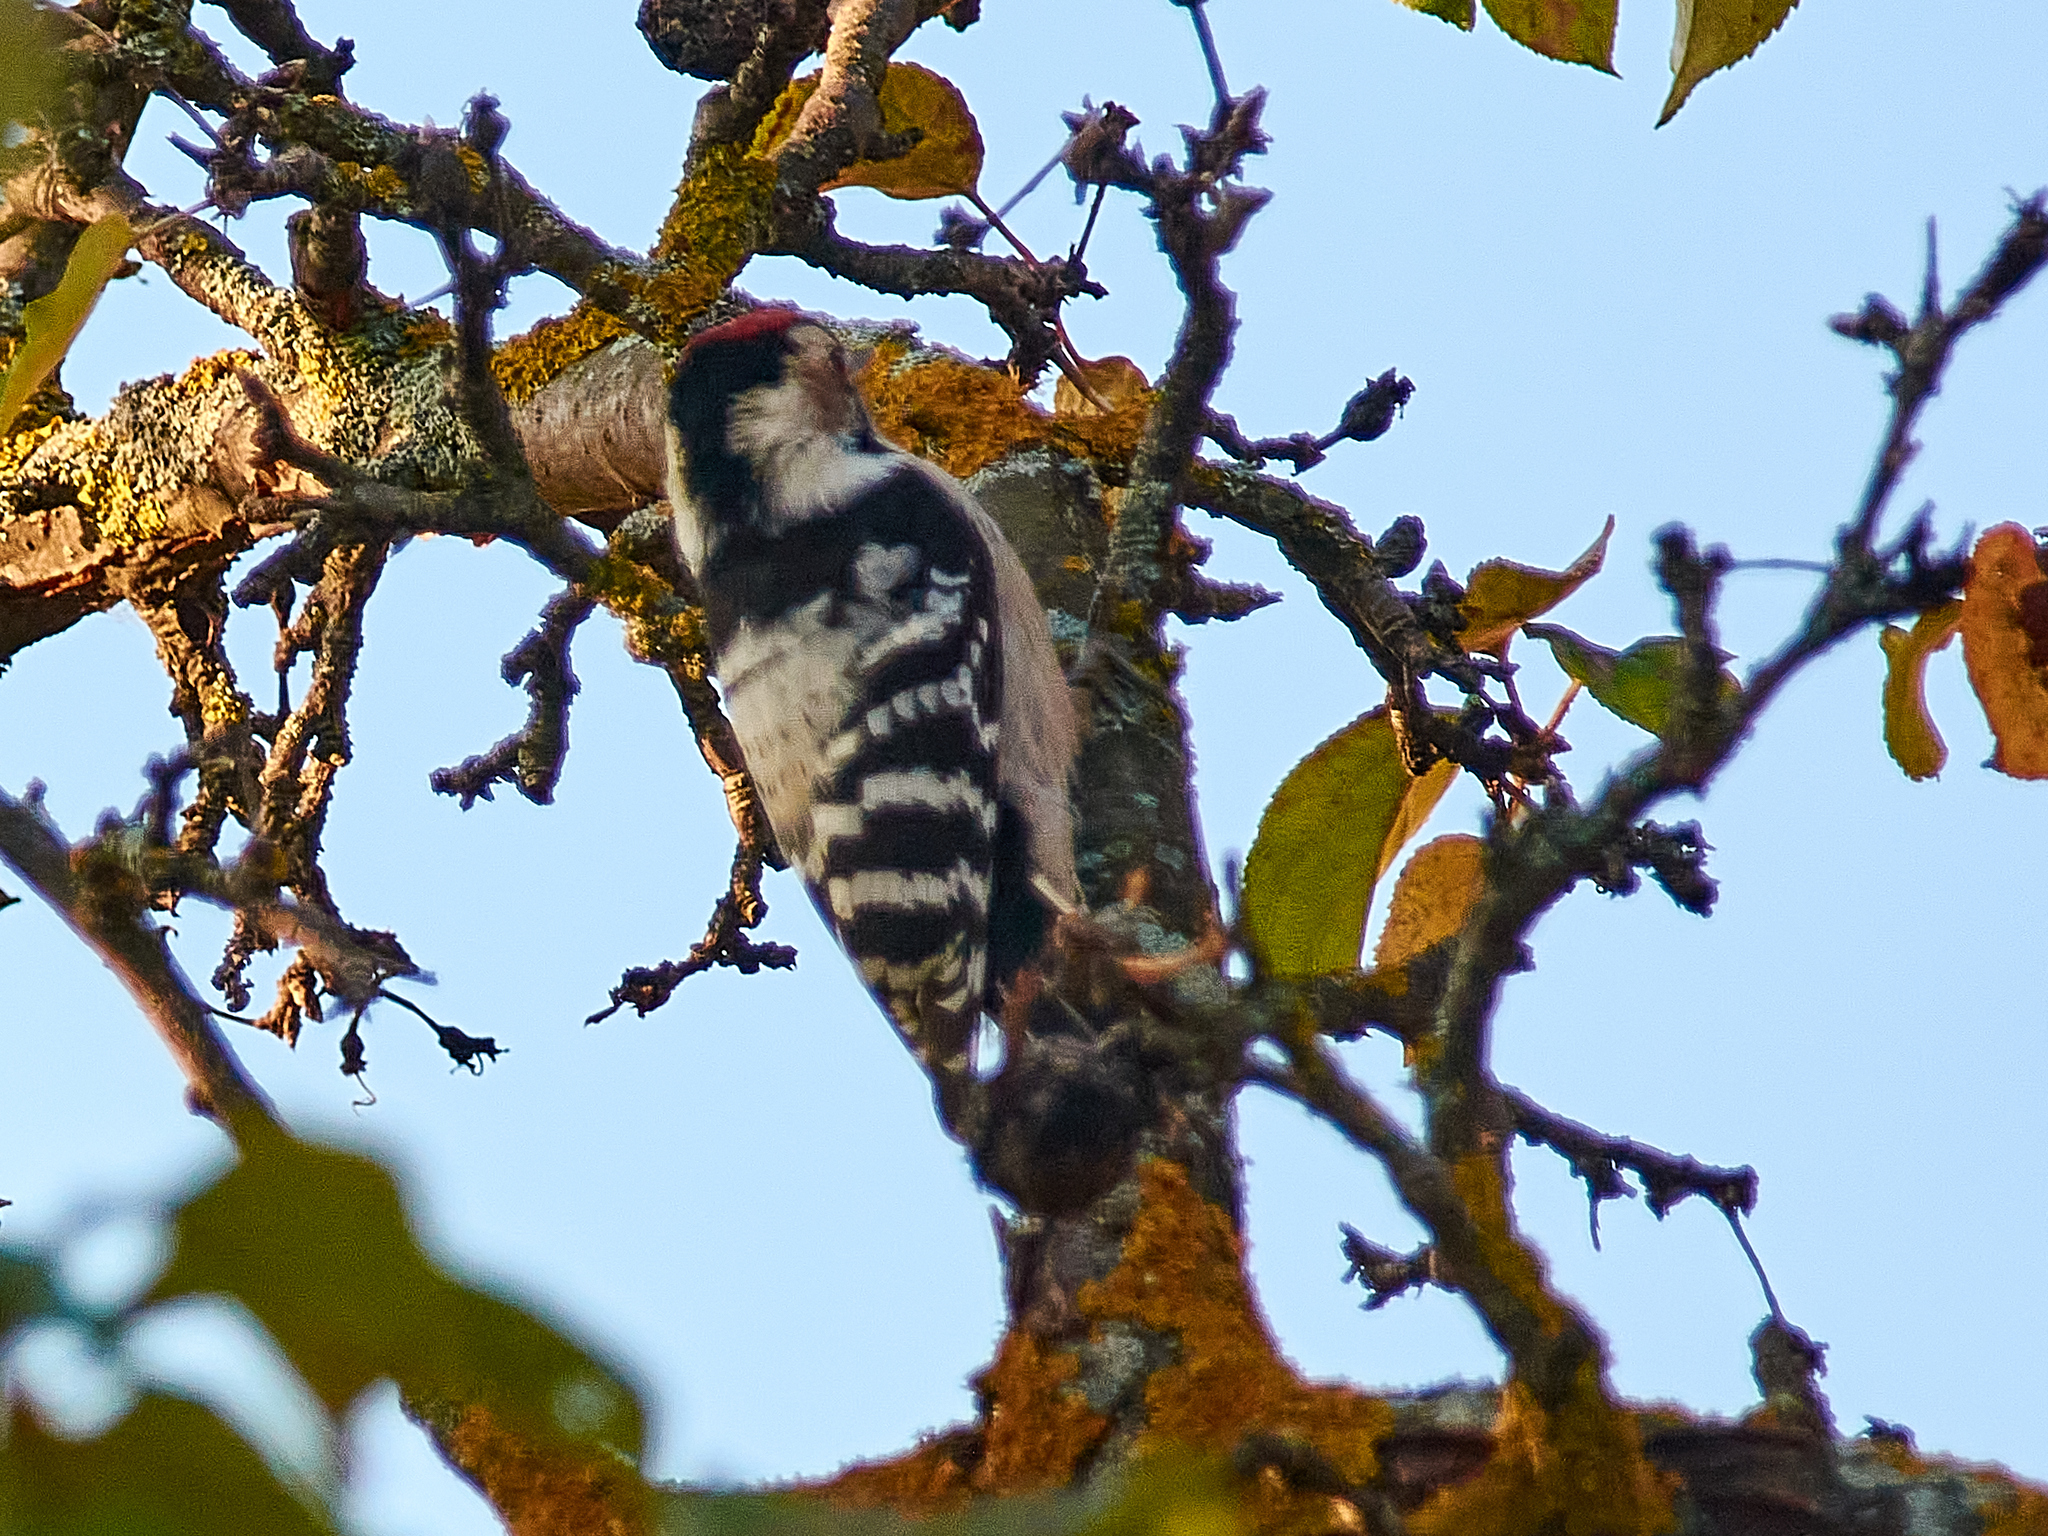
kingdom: Animalia
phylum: Chordata
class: Aves
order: Piciformes
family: Picidae
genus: Dryobates
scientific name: Dryobates minor
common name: Lesser spotted woodpecker
